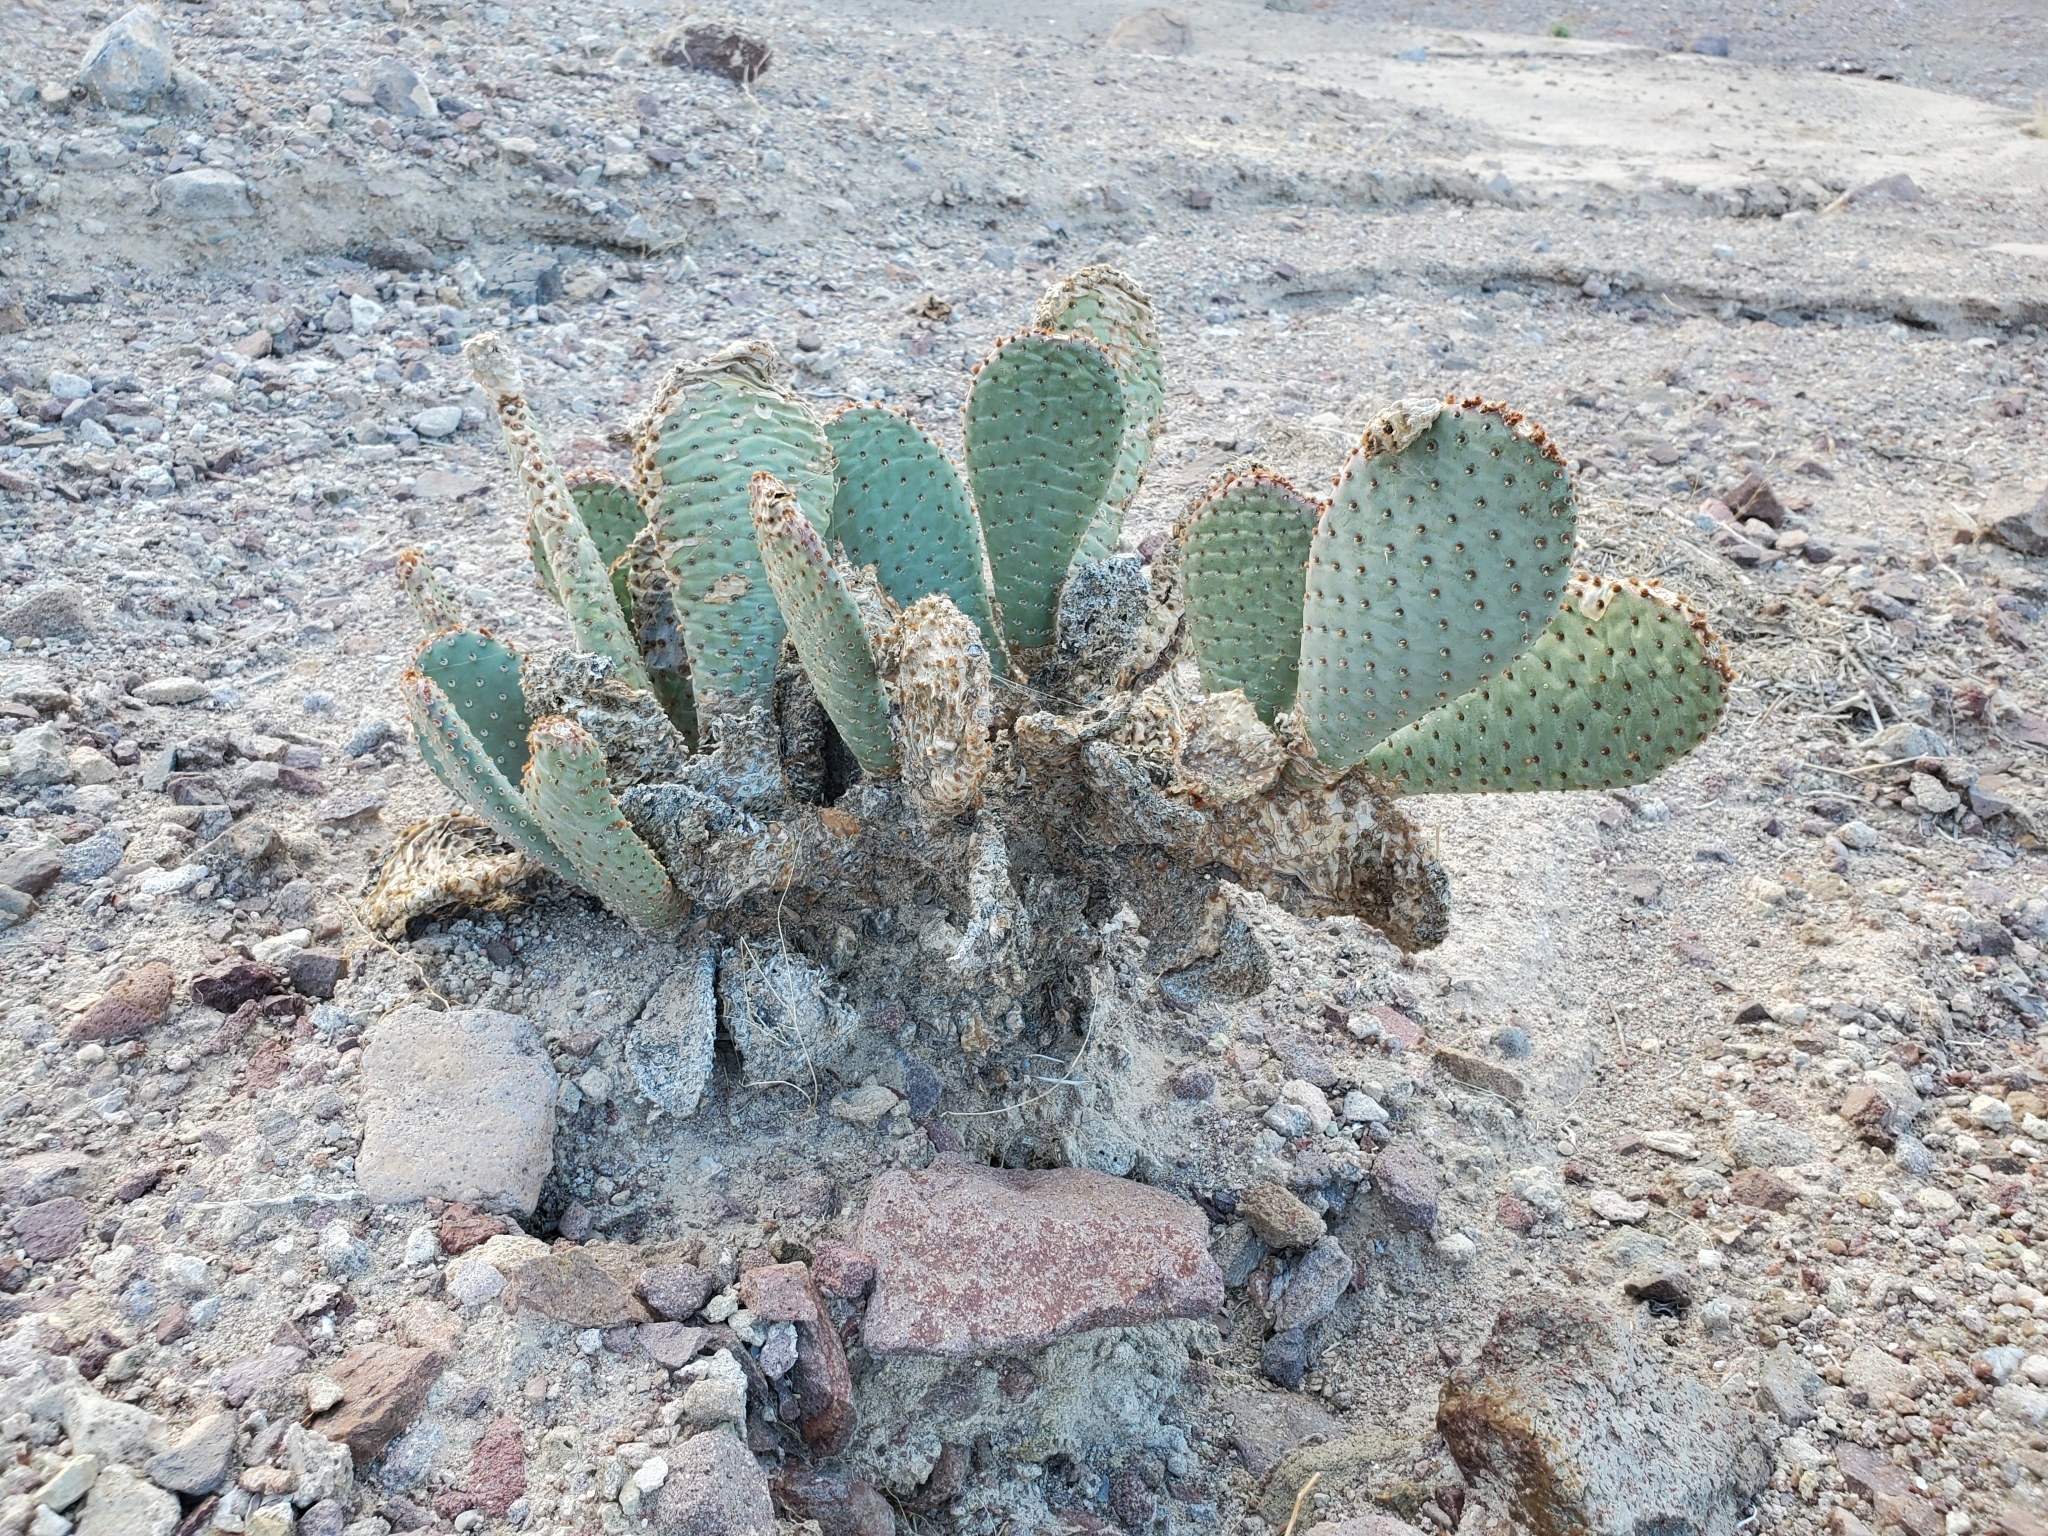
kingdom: Plantae
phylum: Tracheophyta
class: Magnoliopsida
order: Caryophyllales
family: Cactaceae
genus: Opuntia
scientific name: Opuntia basilaris
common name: Beavertail prickly-pear
